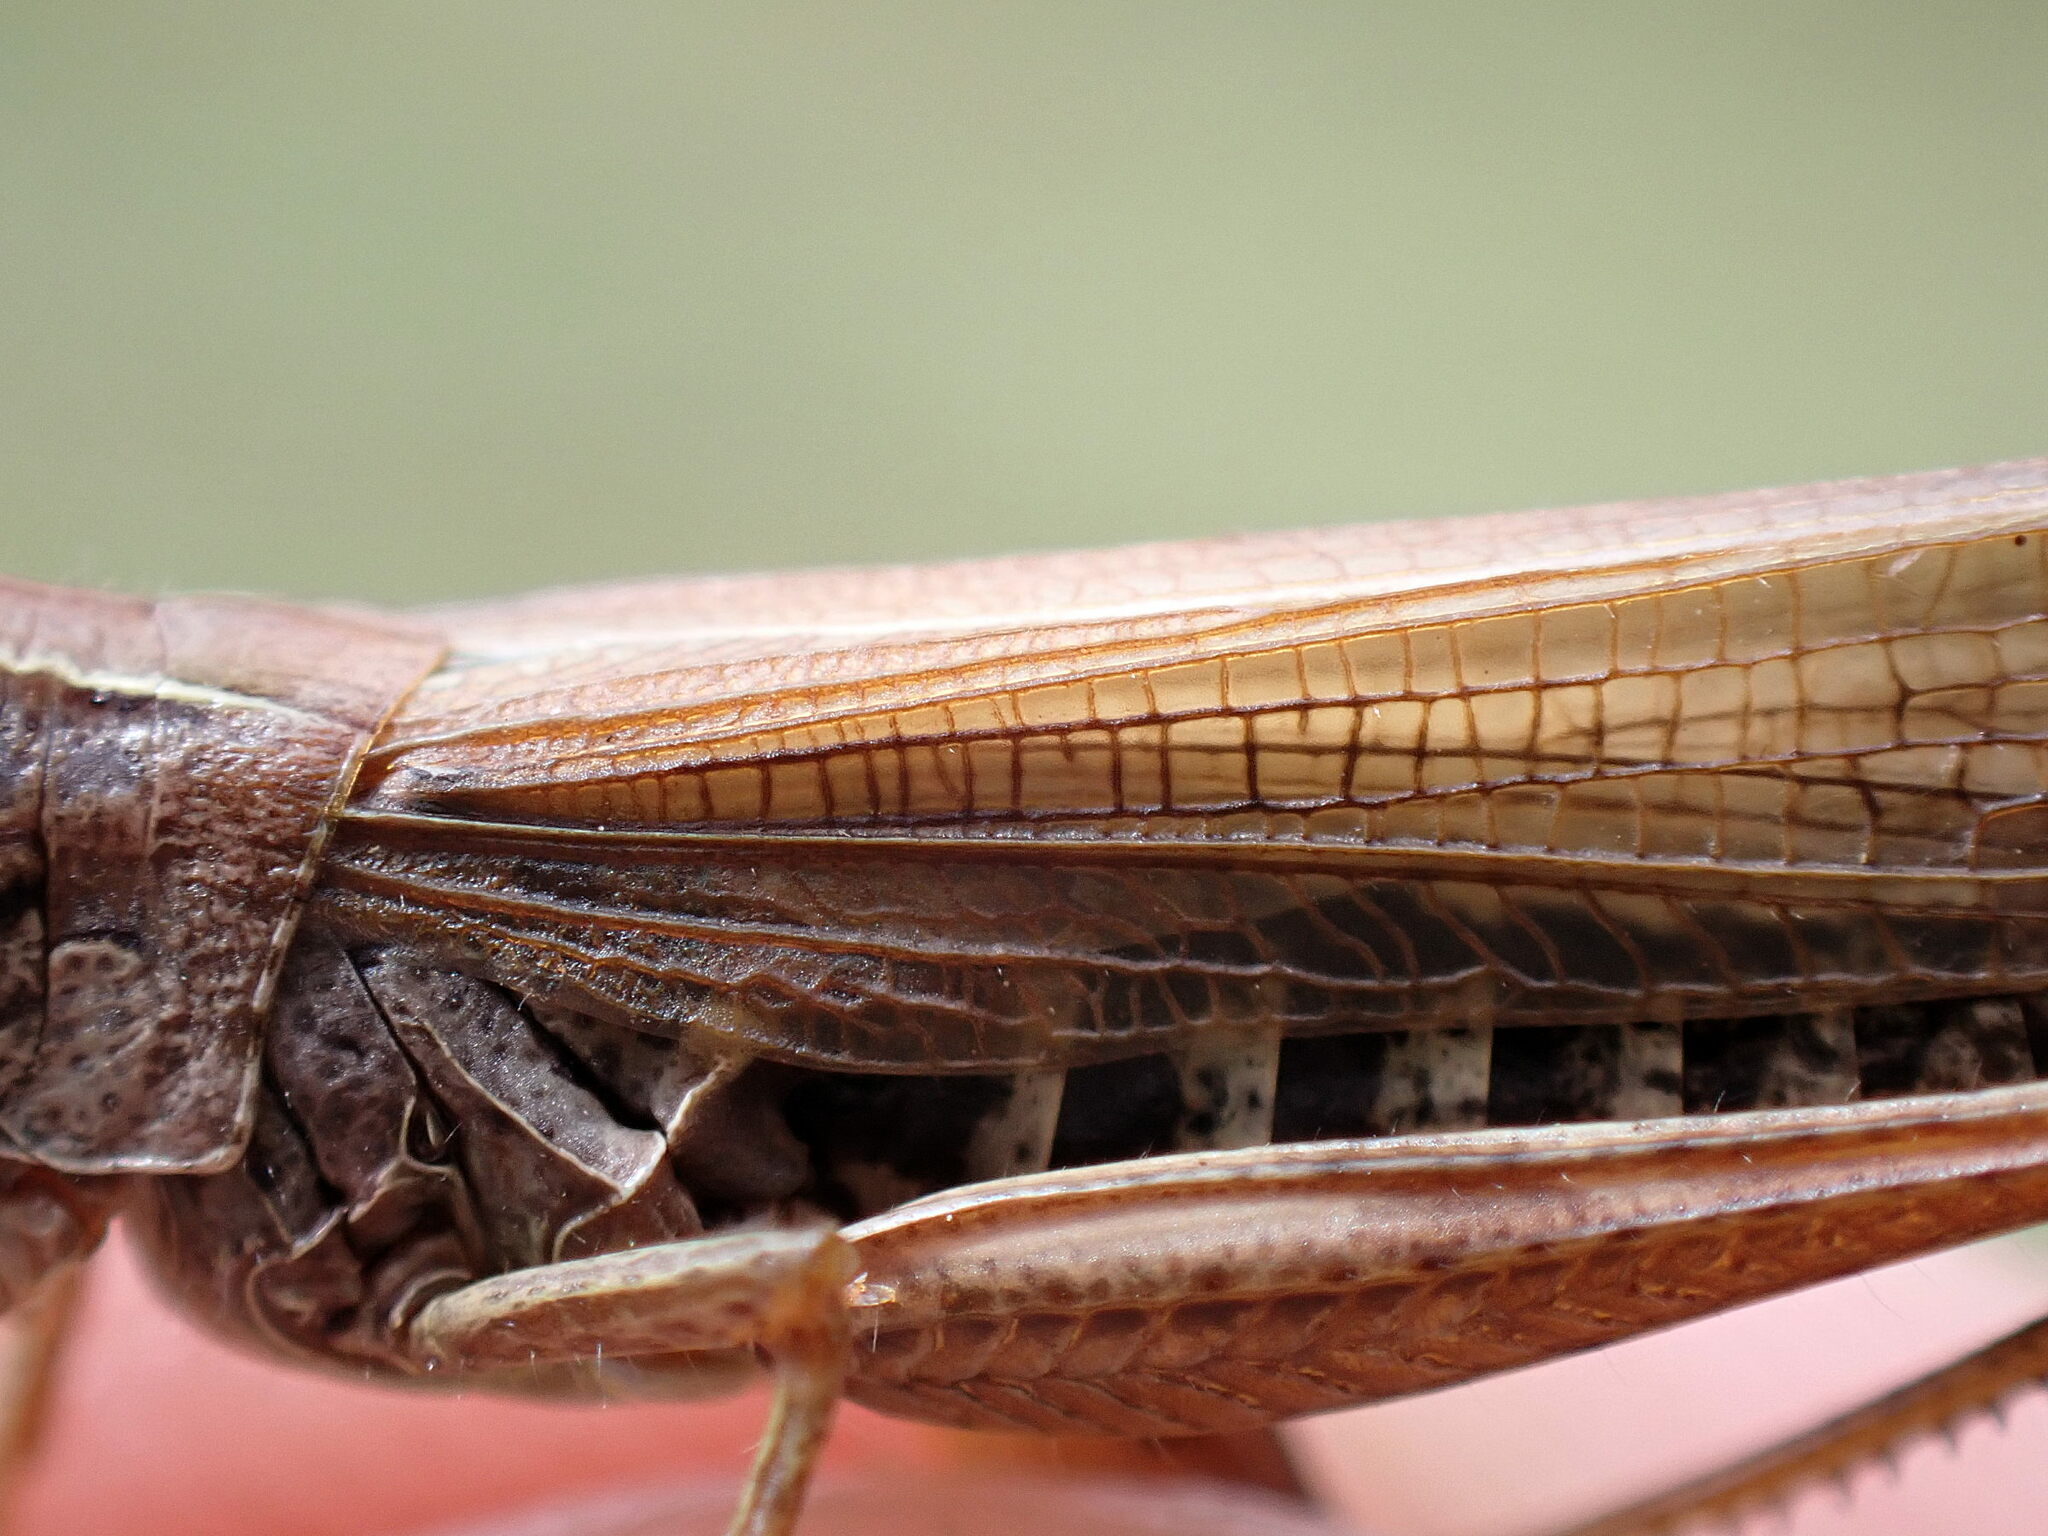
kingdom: Animalia
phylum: Arthropoda
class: Insecta
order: Orthoptera
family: Acrididae
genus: Pseudochorthippus
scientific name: Pseudochorthippus parallelus
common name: Meadow grasshopper
